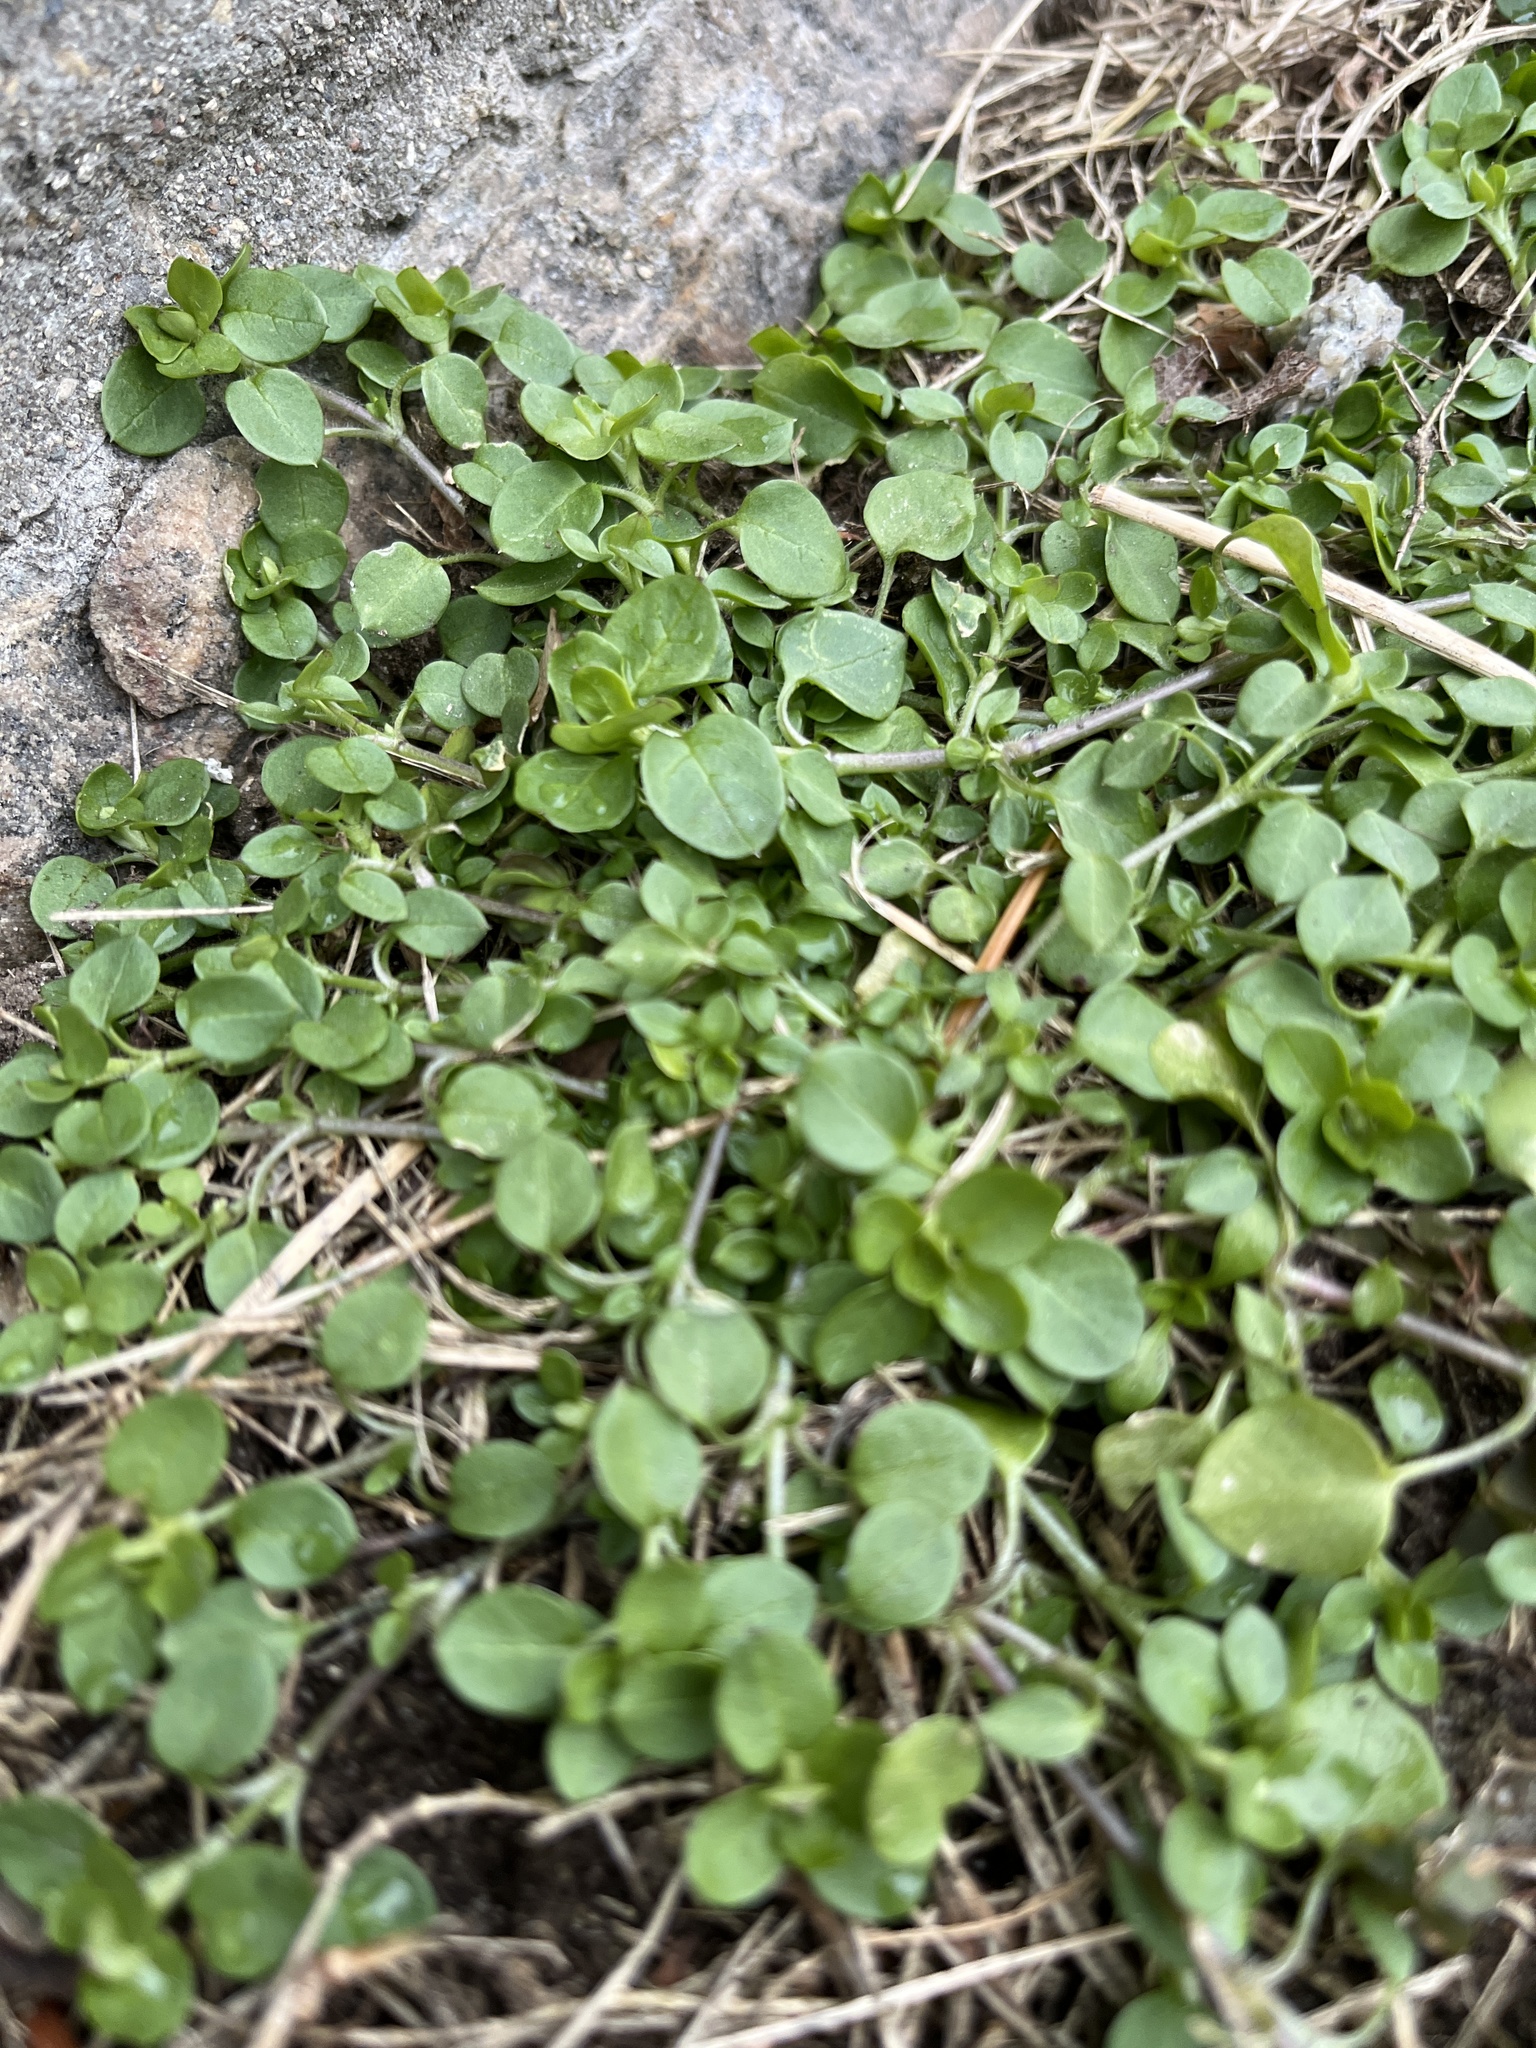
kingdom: Plantae
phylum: Tracheophyta
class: Magnoliopsida
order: Caryophyllales
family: Caryophyllaceae
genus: Stellaria
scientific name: Stellaria media
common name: Common chickweed
